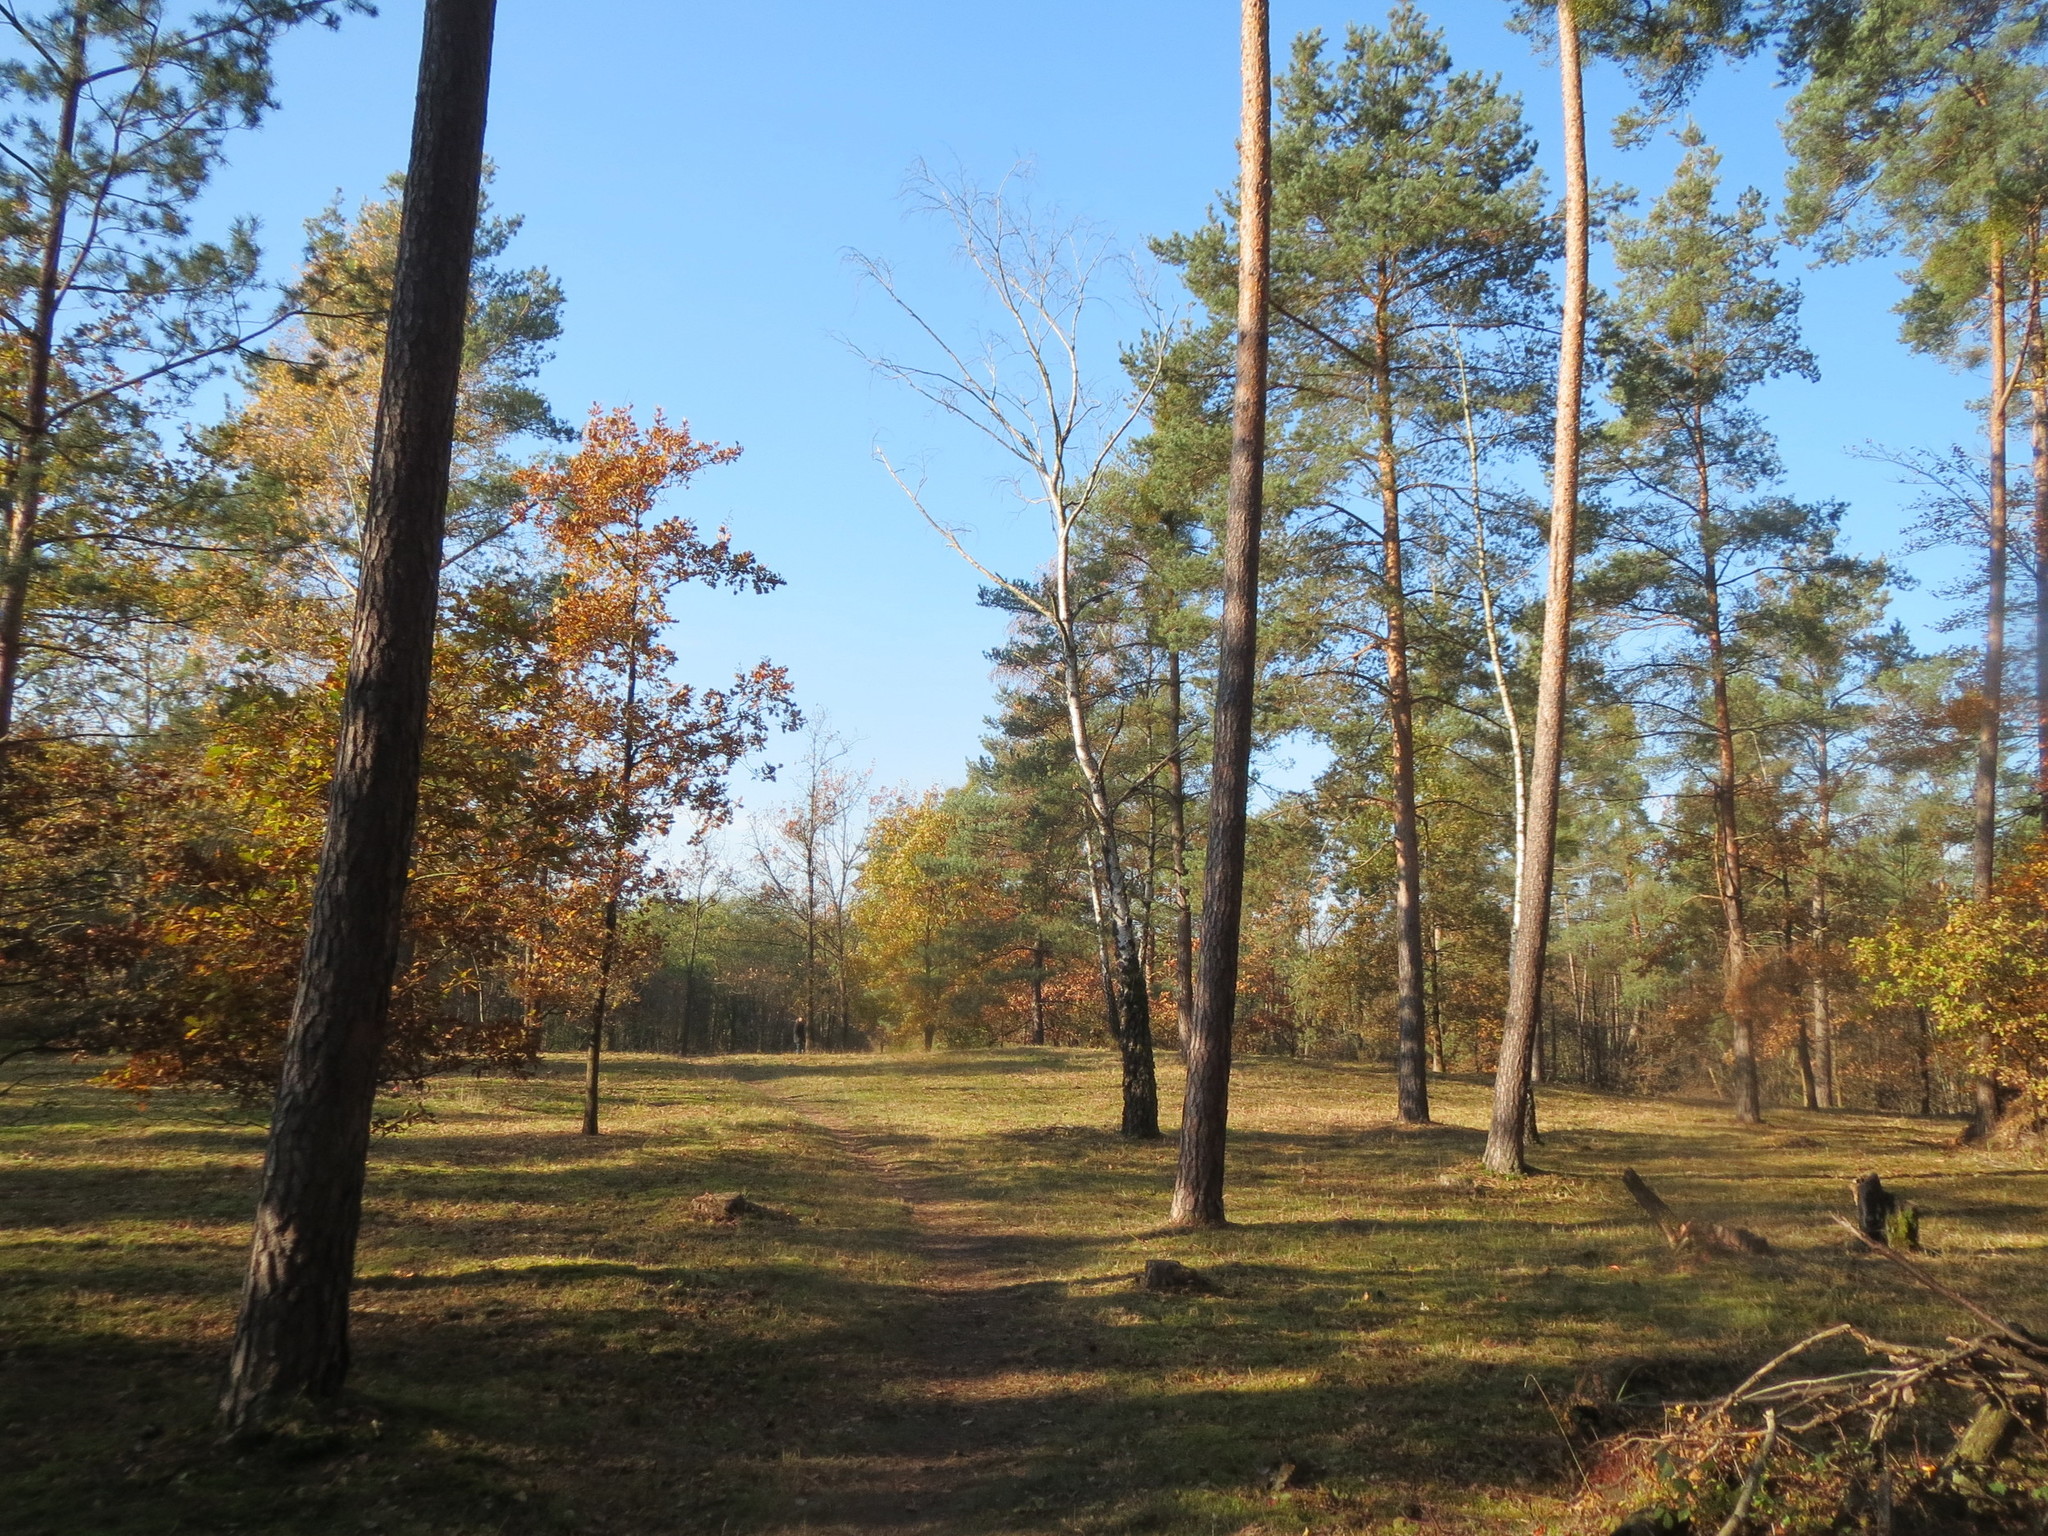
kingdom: Plantae
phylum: Tracheophyta
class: Pinopsida
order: Pinales
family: Pinaceae
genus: Pinus
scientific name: Pinus sylvestris
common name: Scots pine
